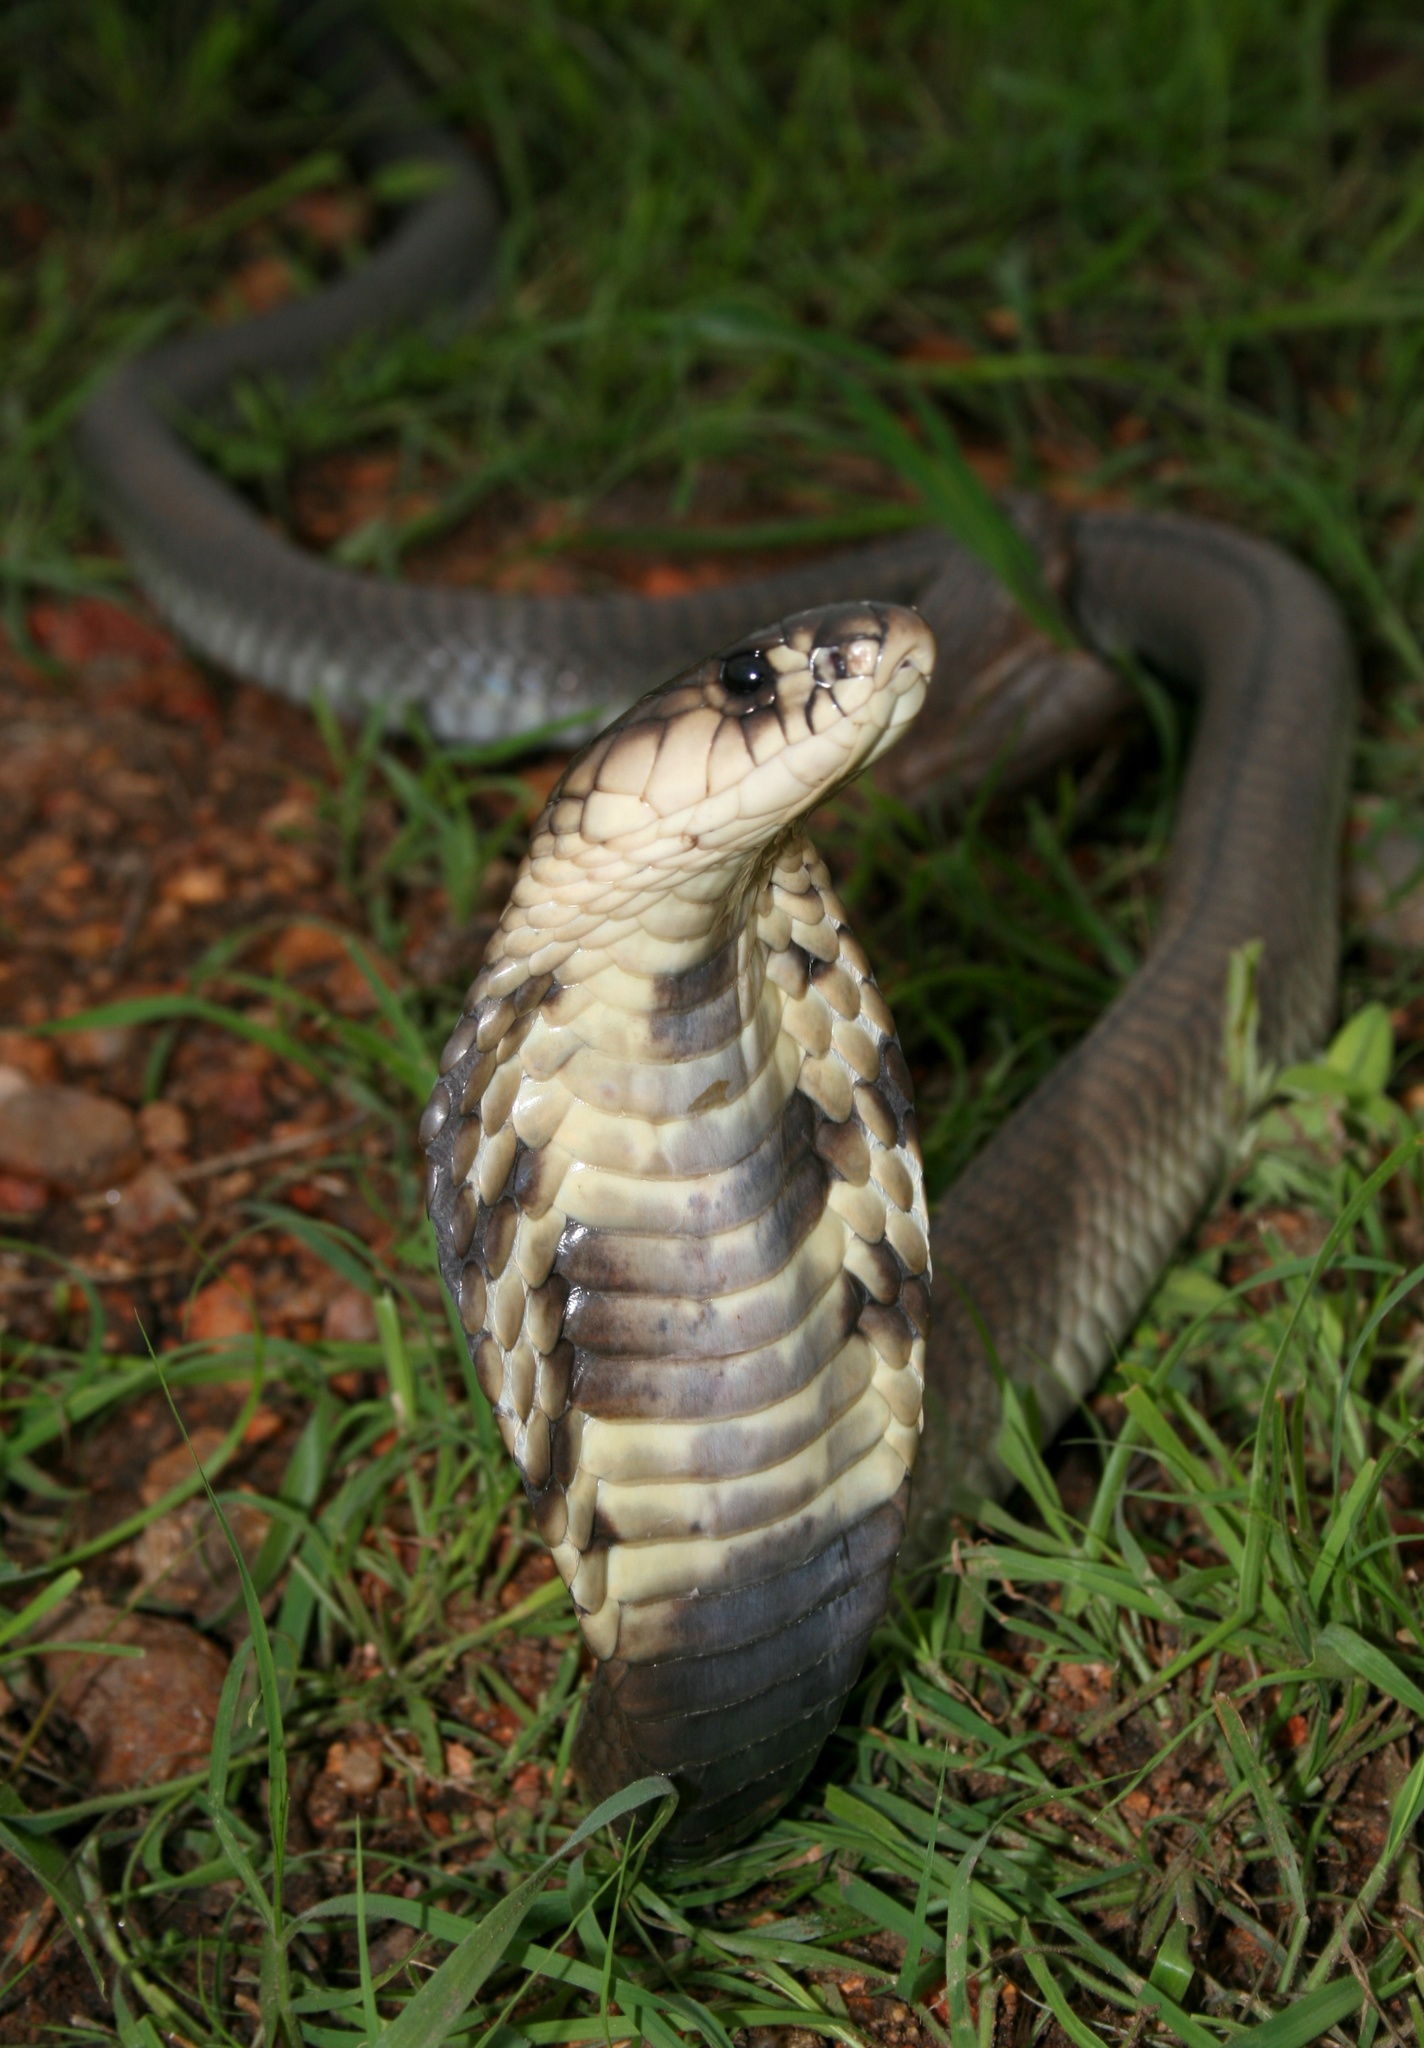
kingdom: Animalia
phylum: Chordata
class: Squamata
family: Elapidae
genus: Naja
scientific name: Naja annulifera
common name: Snouted cobra
